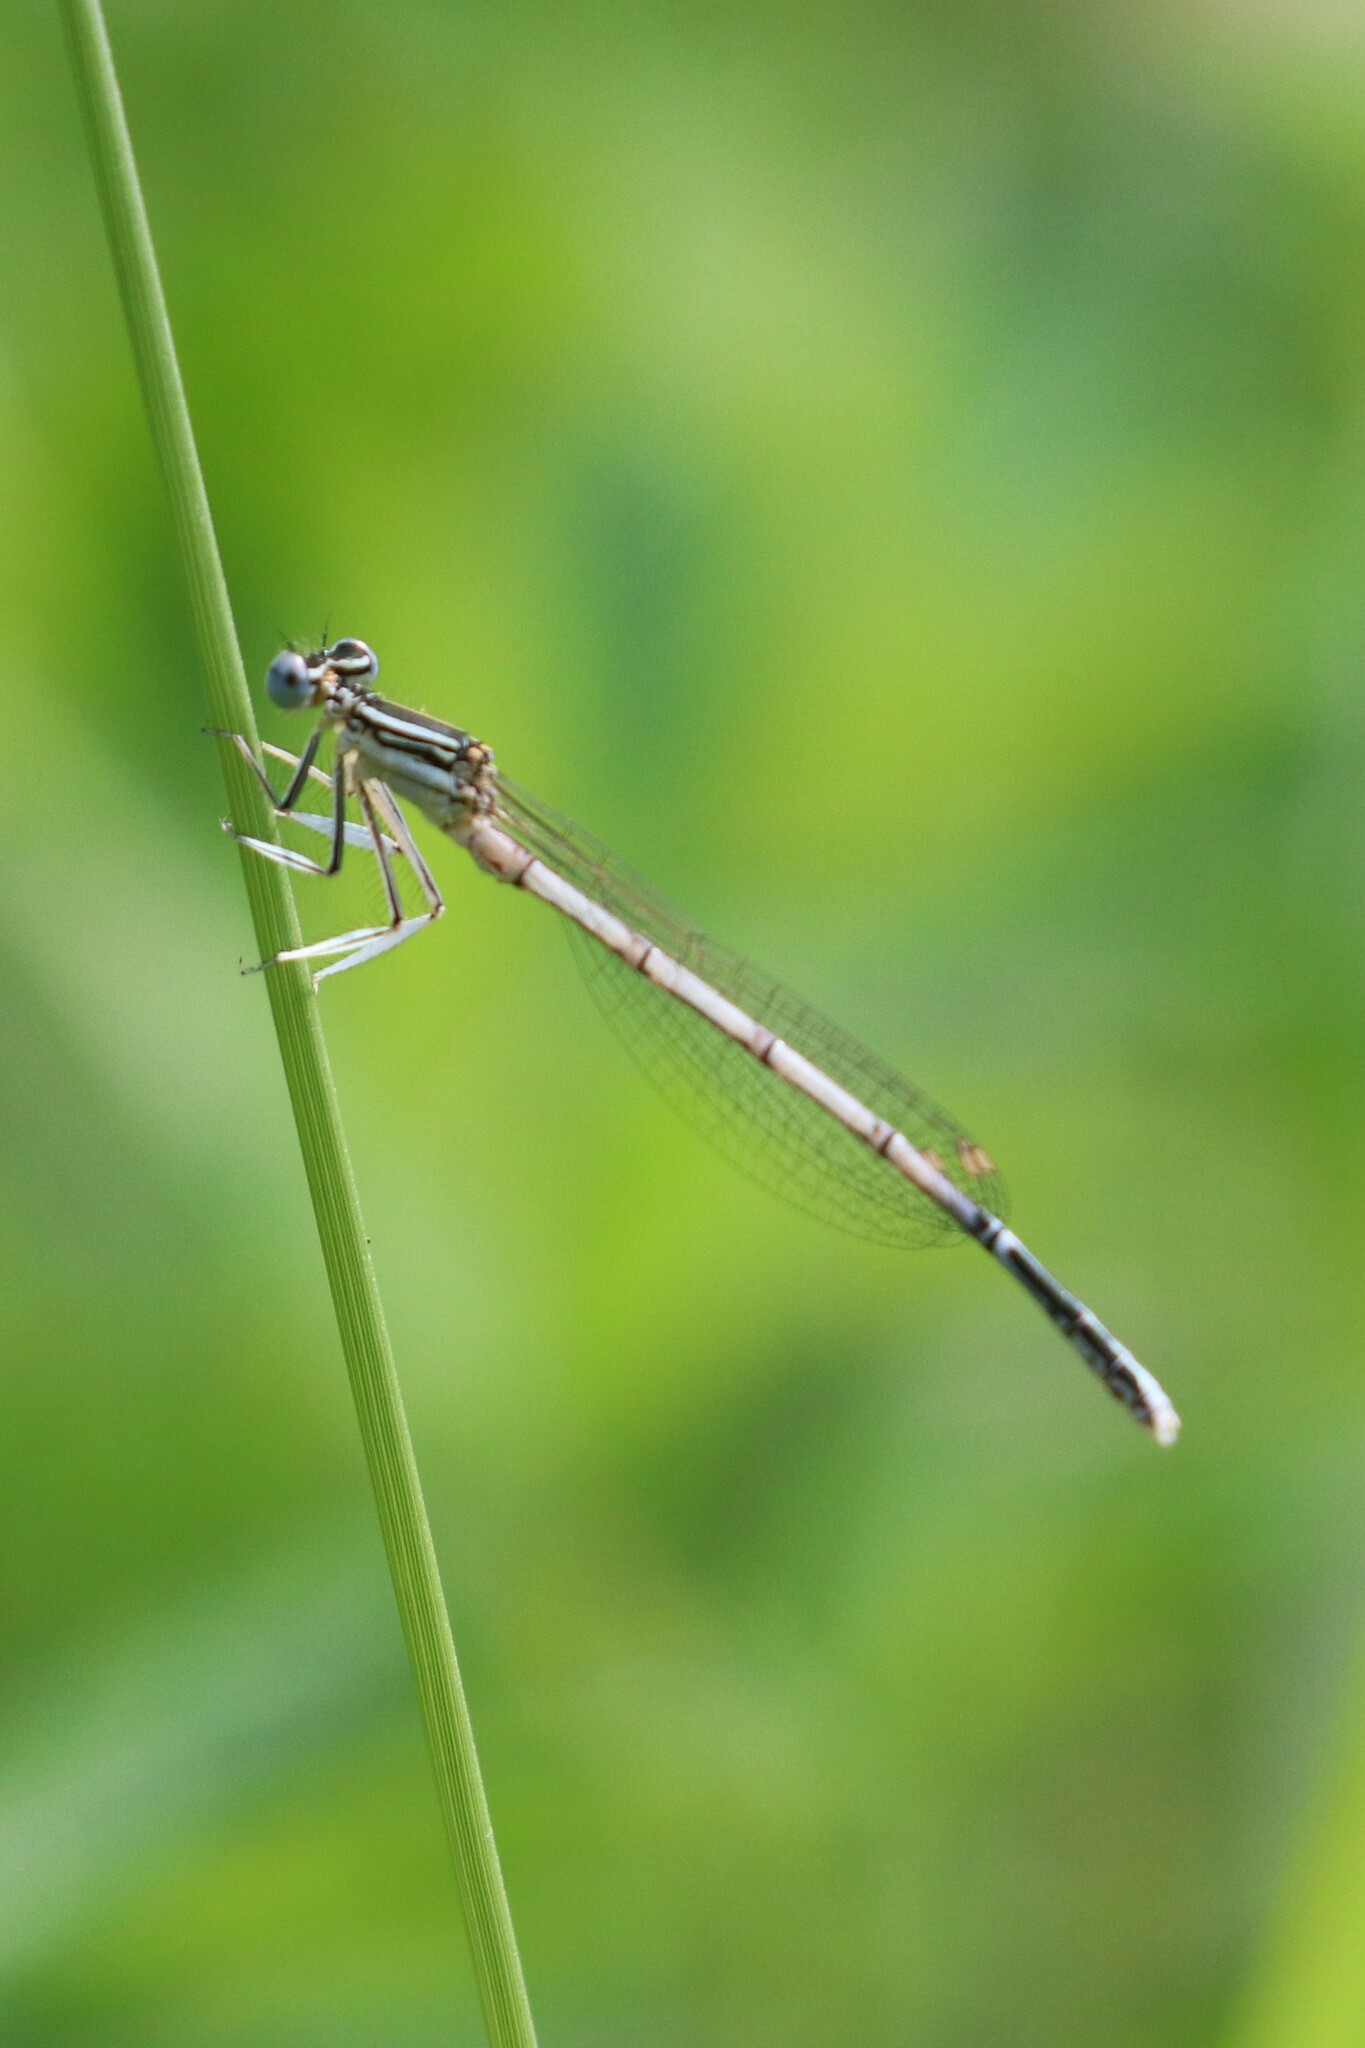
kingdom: Animalia
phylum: Arthropoda
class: Insecta
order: Odonata
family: Platycnemididae
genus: Platycnemis
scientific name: Platycnemis pennipes
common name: White-legged damselfly
